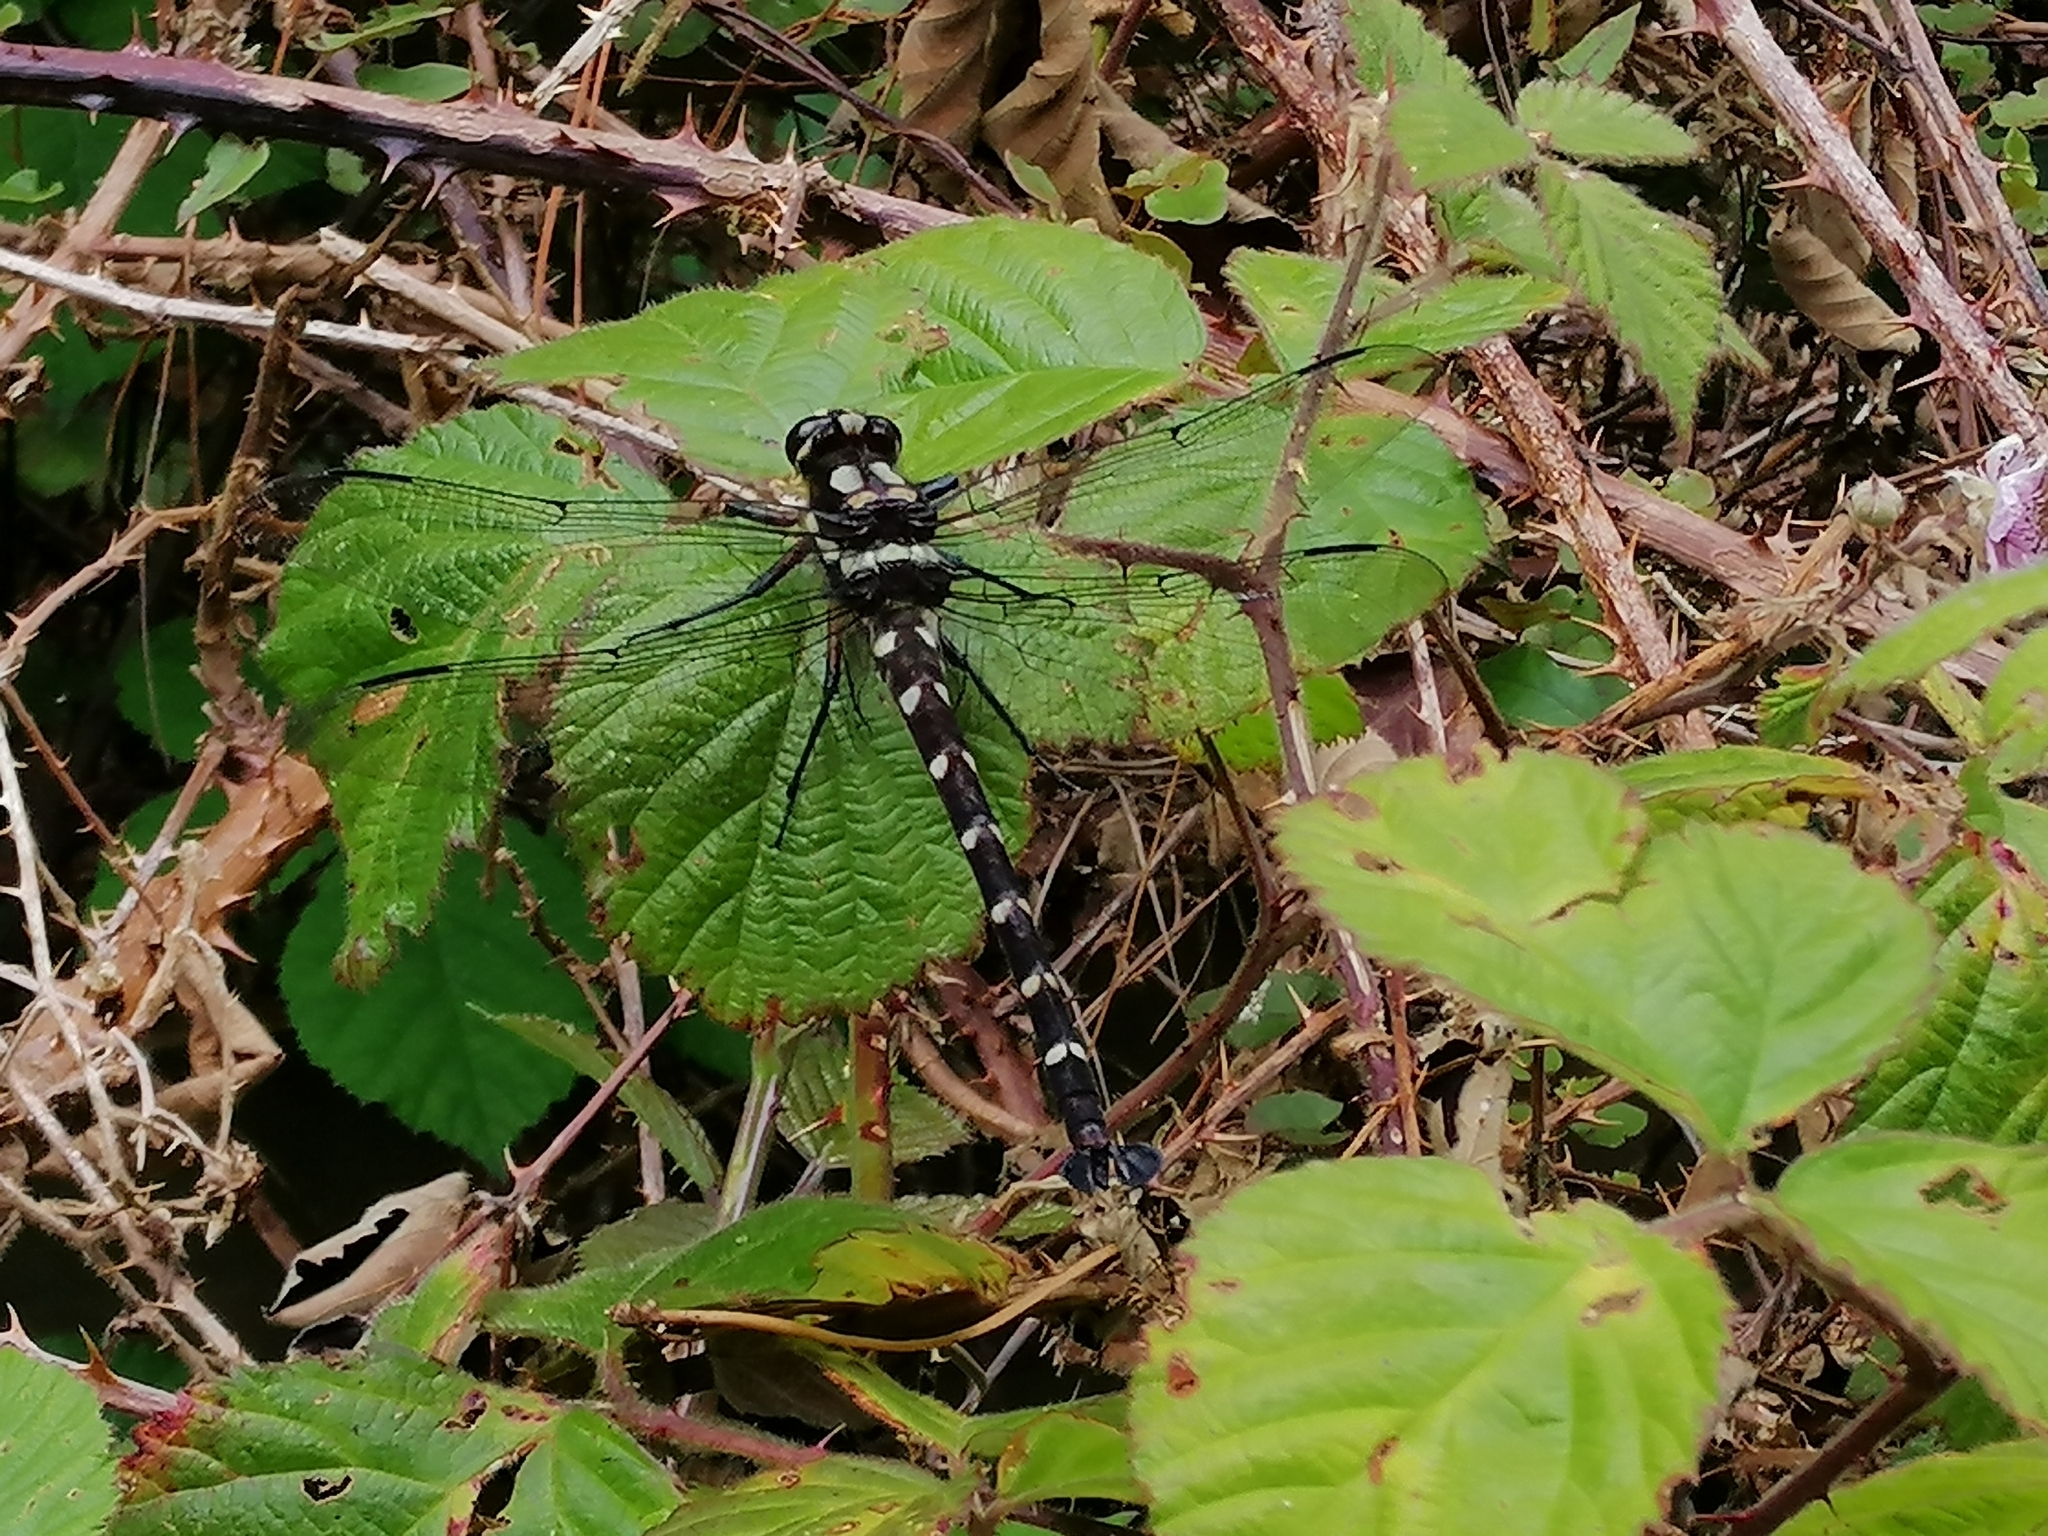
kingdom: Animalia
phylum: Arthropoda
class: Insecta
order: Odonata
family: Petaluridae
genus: Uropetala
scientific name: Uropetala carovei
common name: Bush giant dragonfly
